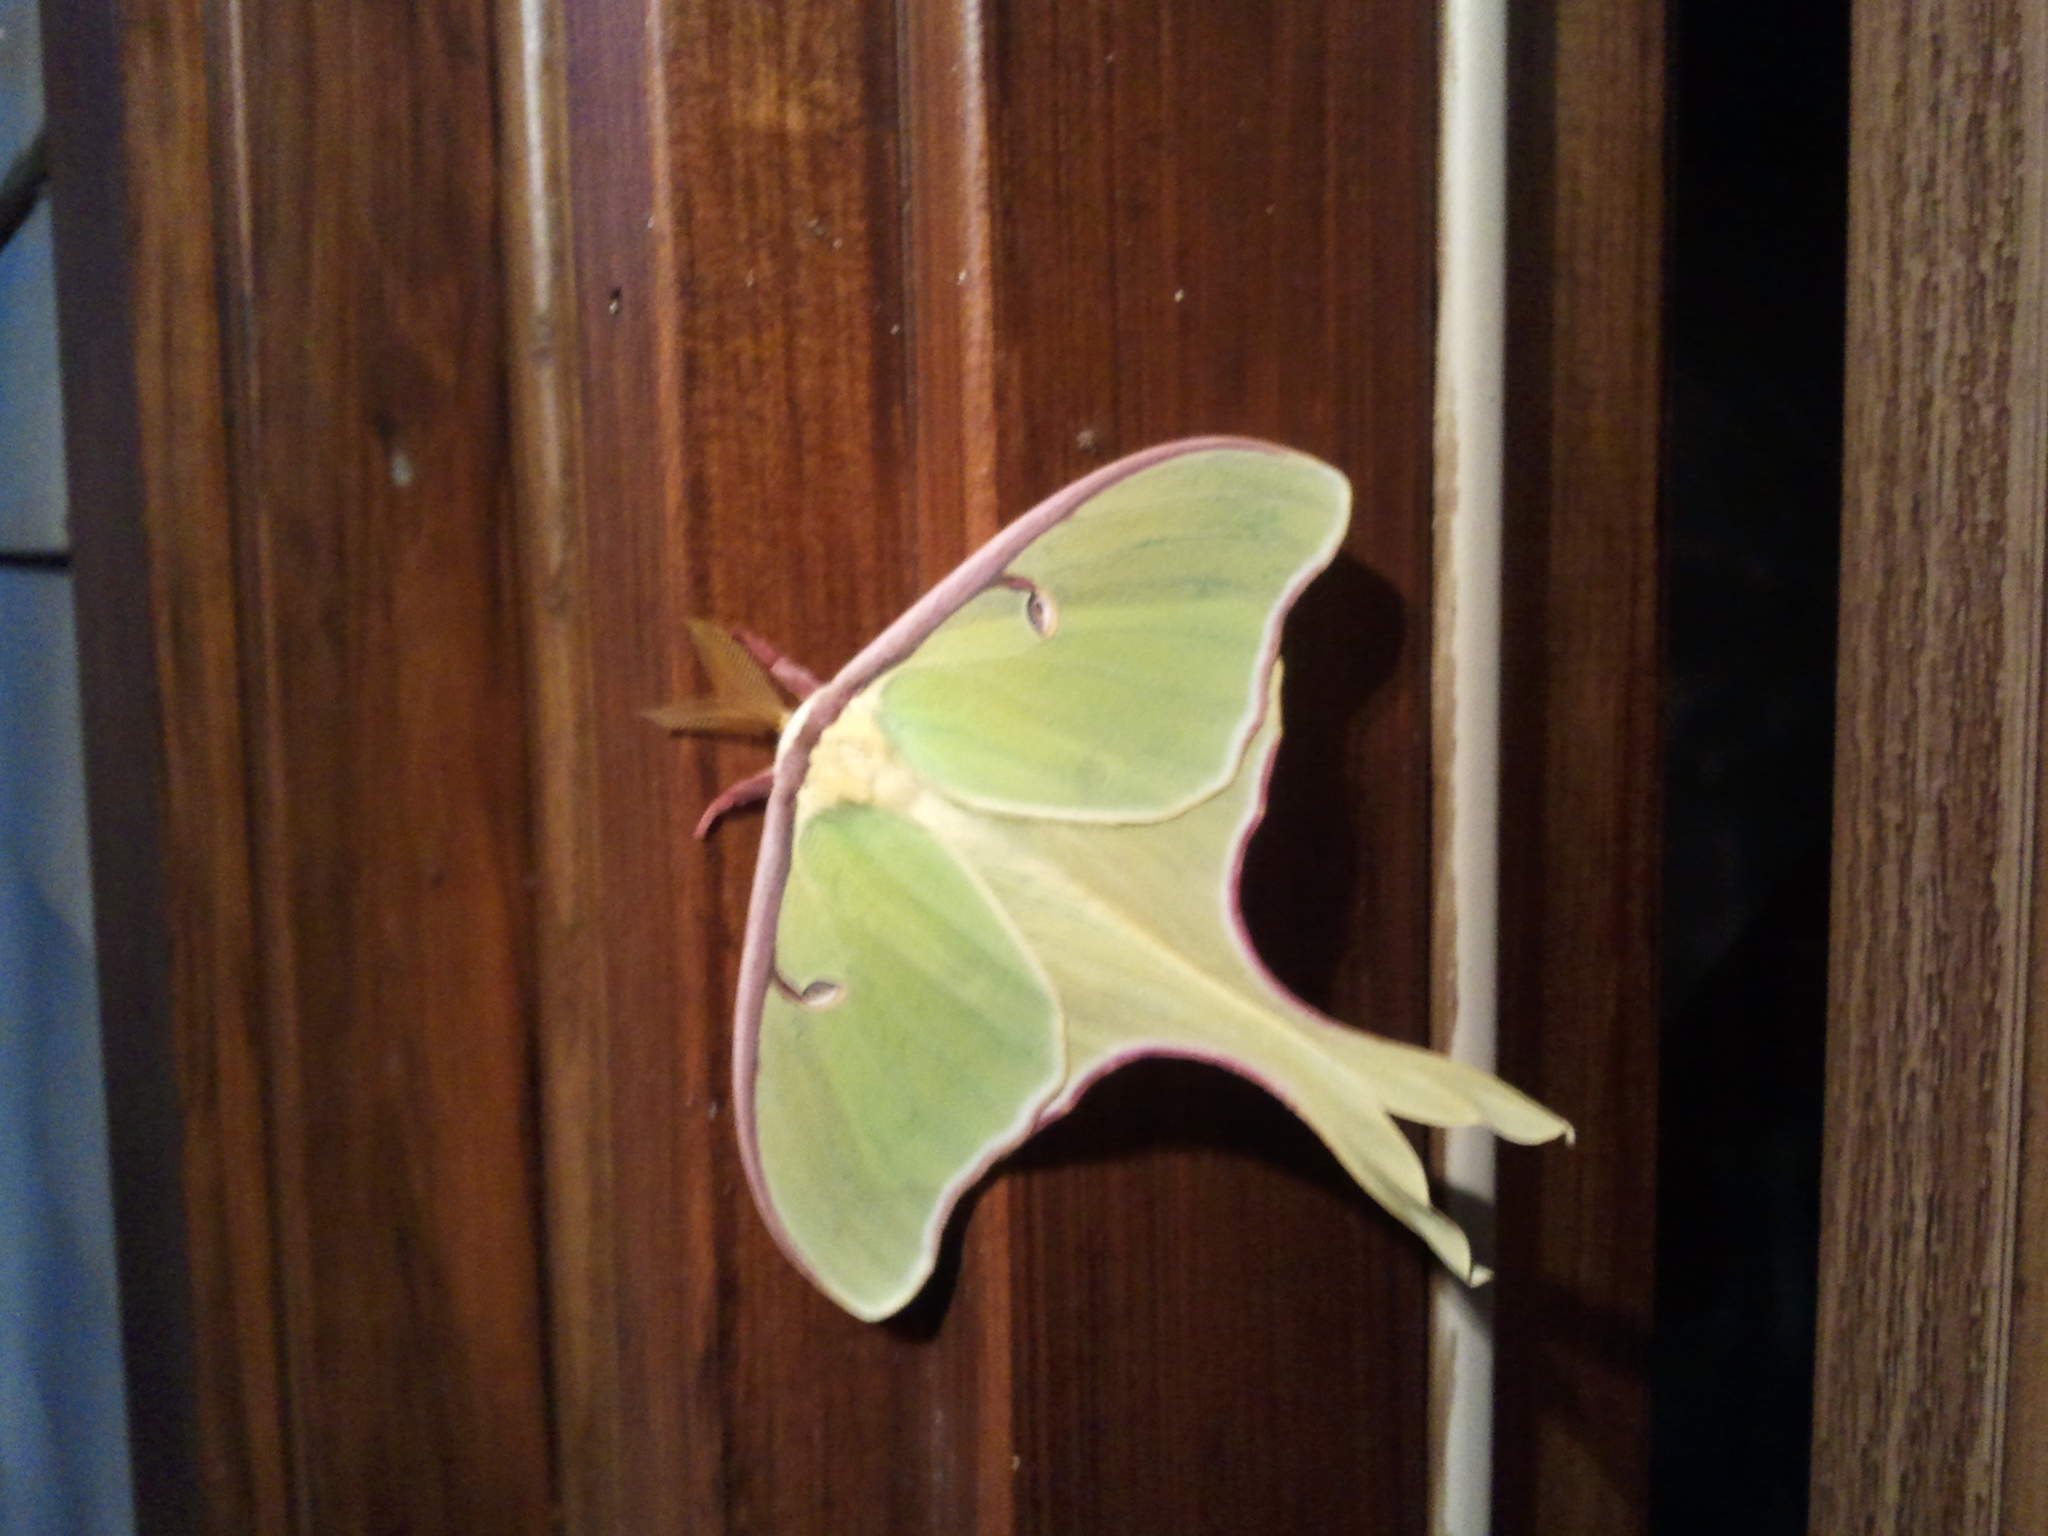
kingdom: Animalia
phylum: Arthropoda
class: Insecta
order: Lepidoptera
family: Saturniidae
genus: Actias
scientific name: Actias luna
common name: Luna moth
